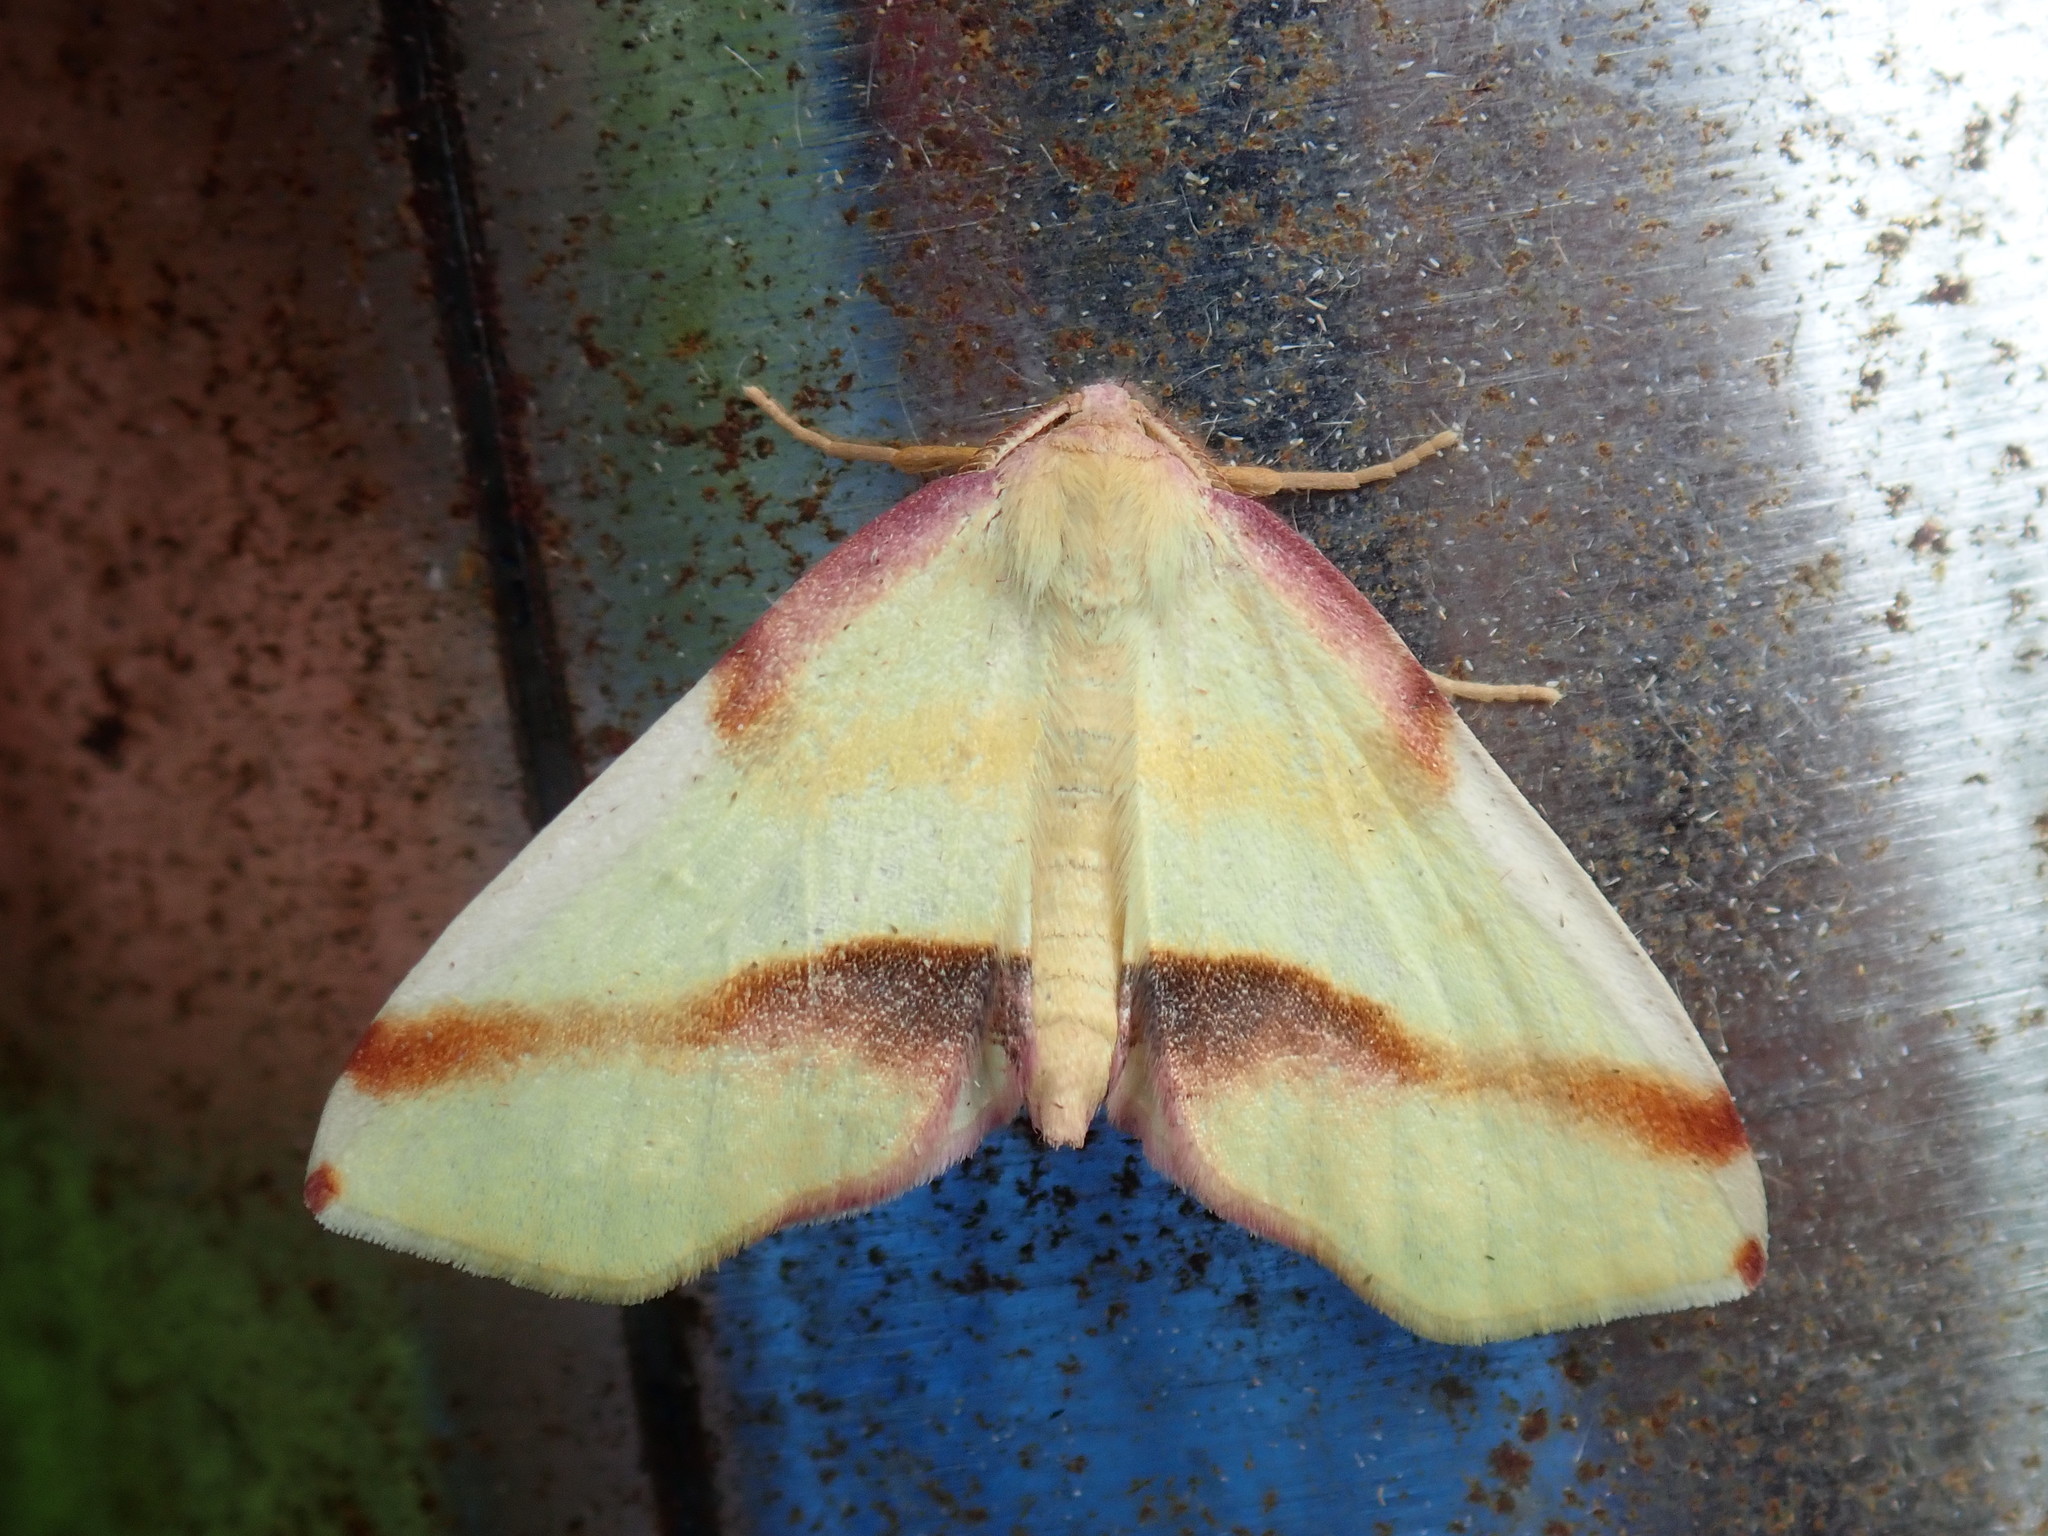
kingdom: Animalia
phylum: Arthropoda
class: Insecta
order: Lepidoptera
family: Geometridae
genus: Plagodis
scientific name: Plagodis serinaria
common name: Lemon plagodis
